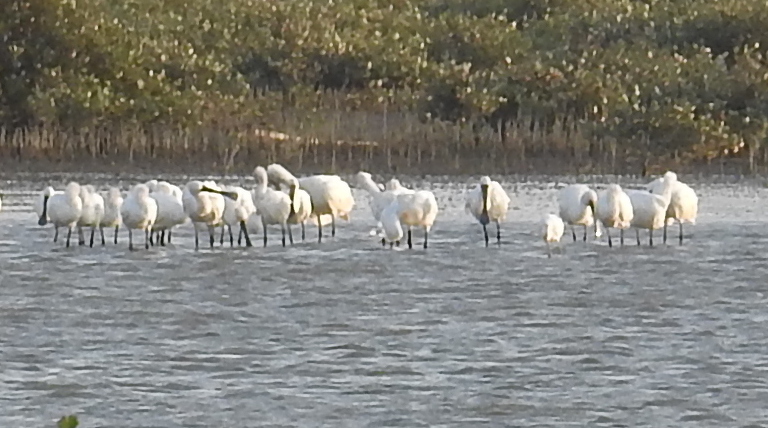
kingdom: Animalia
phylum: Chordata
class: Aves
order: Pelecaniformes
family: Threskiornithidae
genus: Platalea
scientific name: Platalea minor
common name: Black-faced spoonbill
